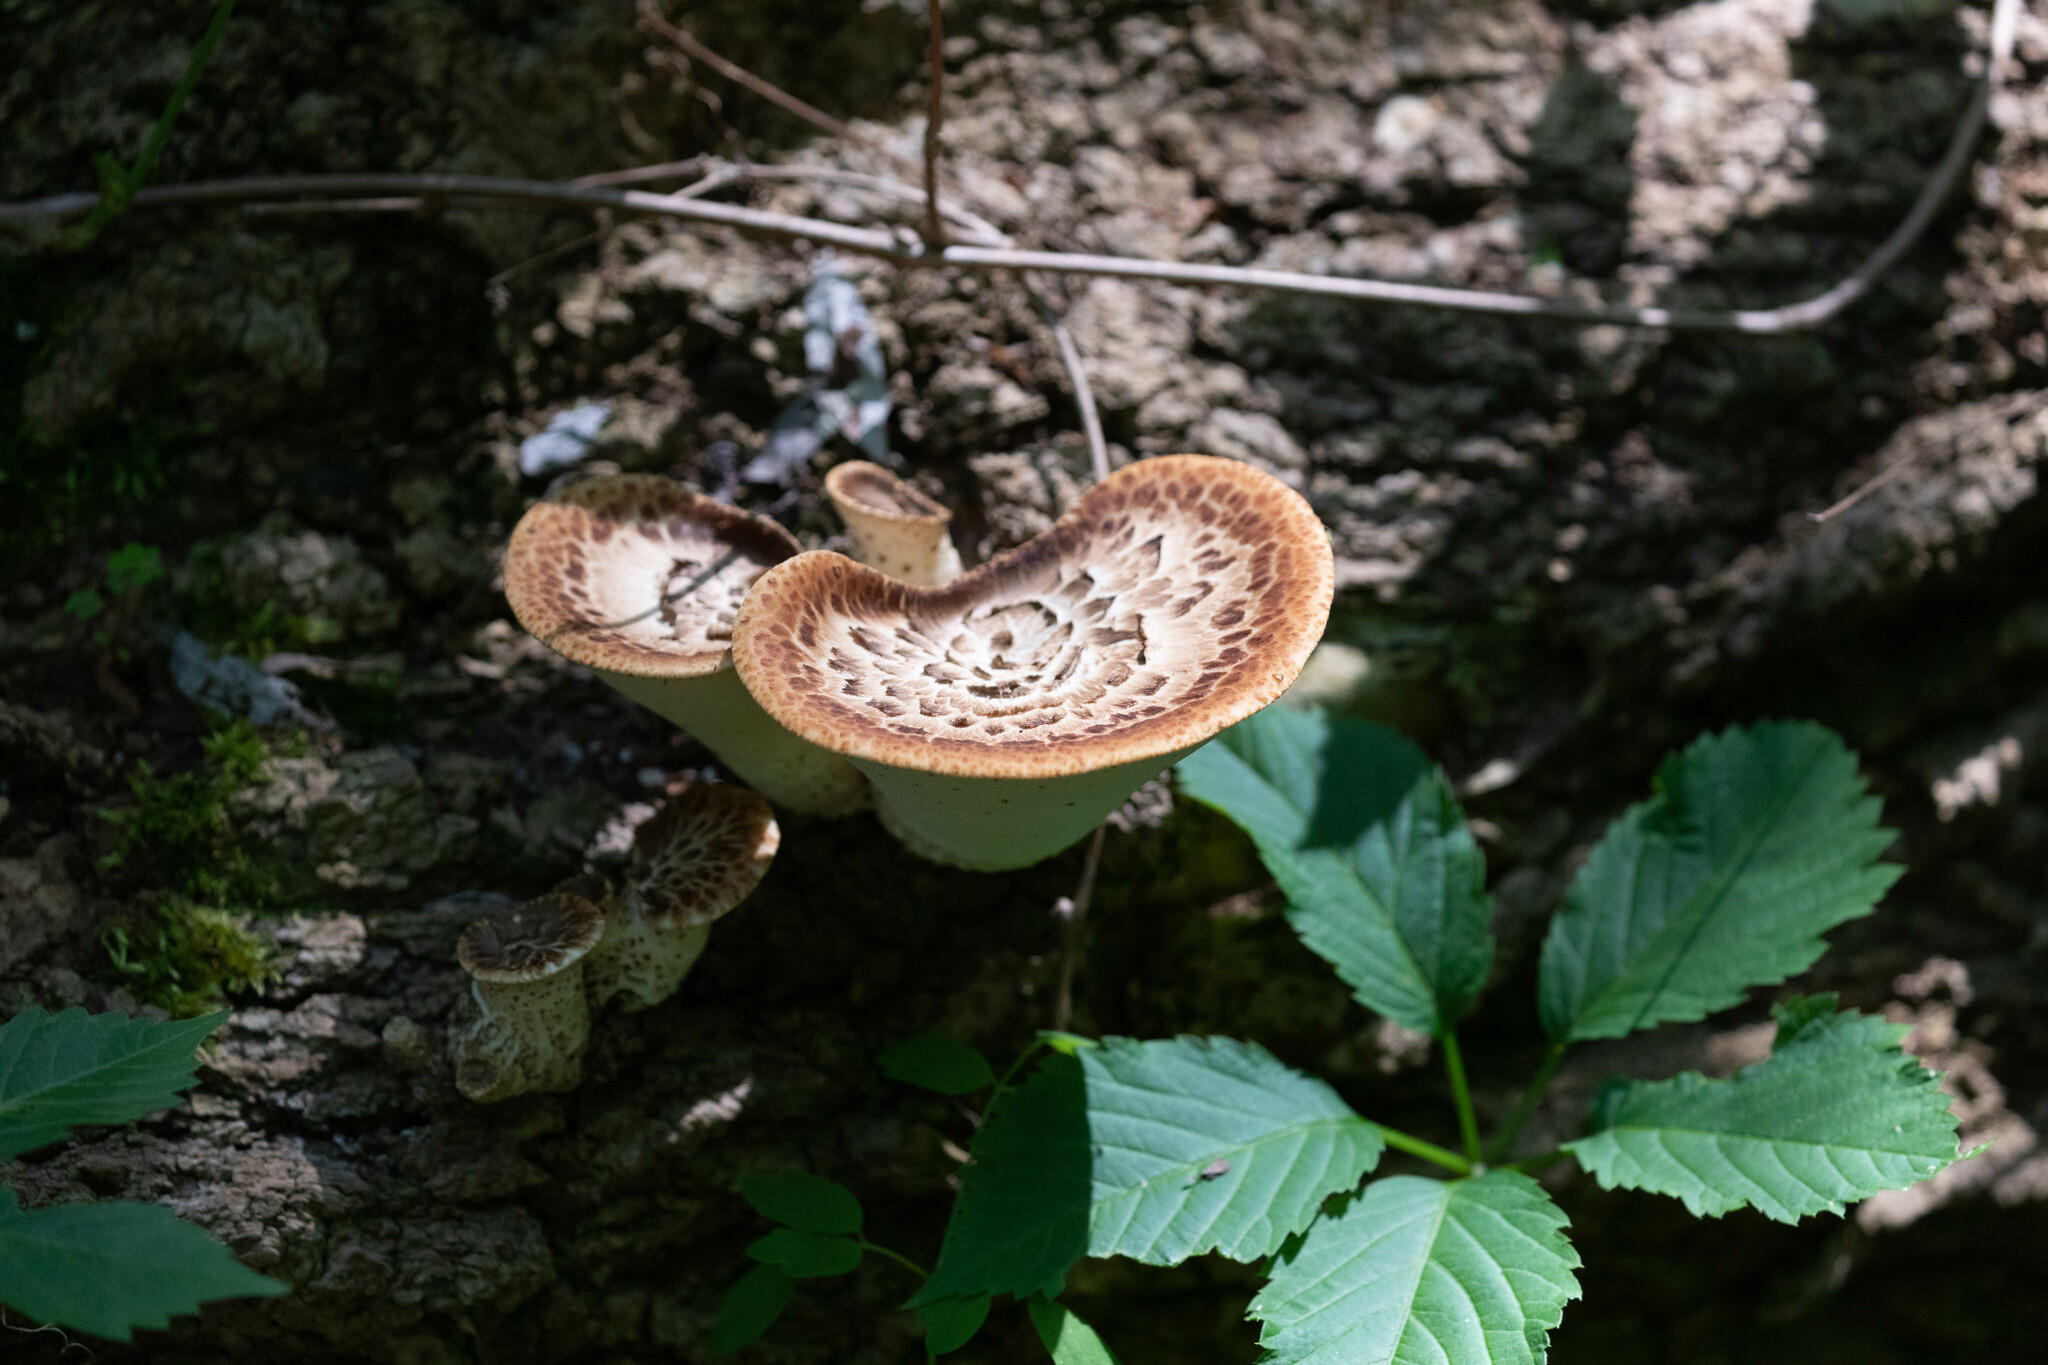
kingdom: Fungi
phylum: Basidiomycota
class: Agaricomycetes
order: Polyporales
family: Polyporaceae
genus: Cerioporus
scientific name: Cerioporus squamosus
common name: Dryad's saddle
